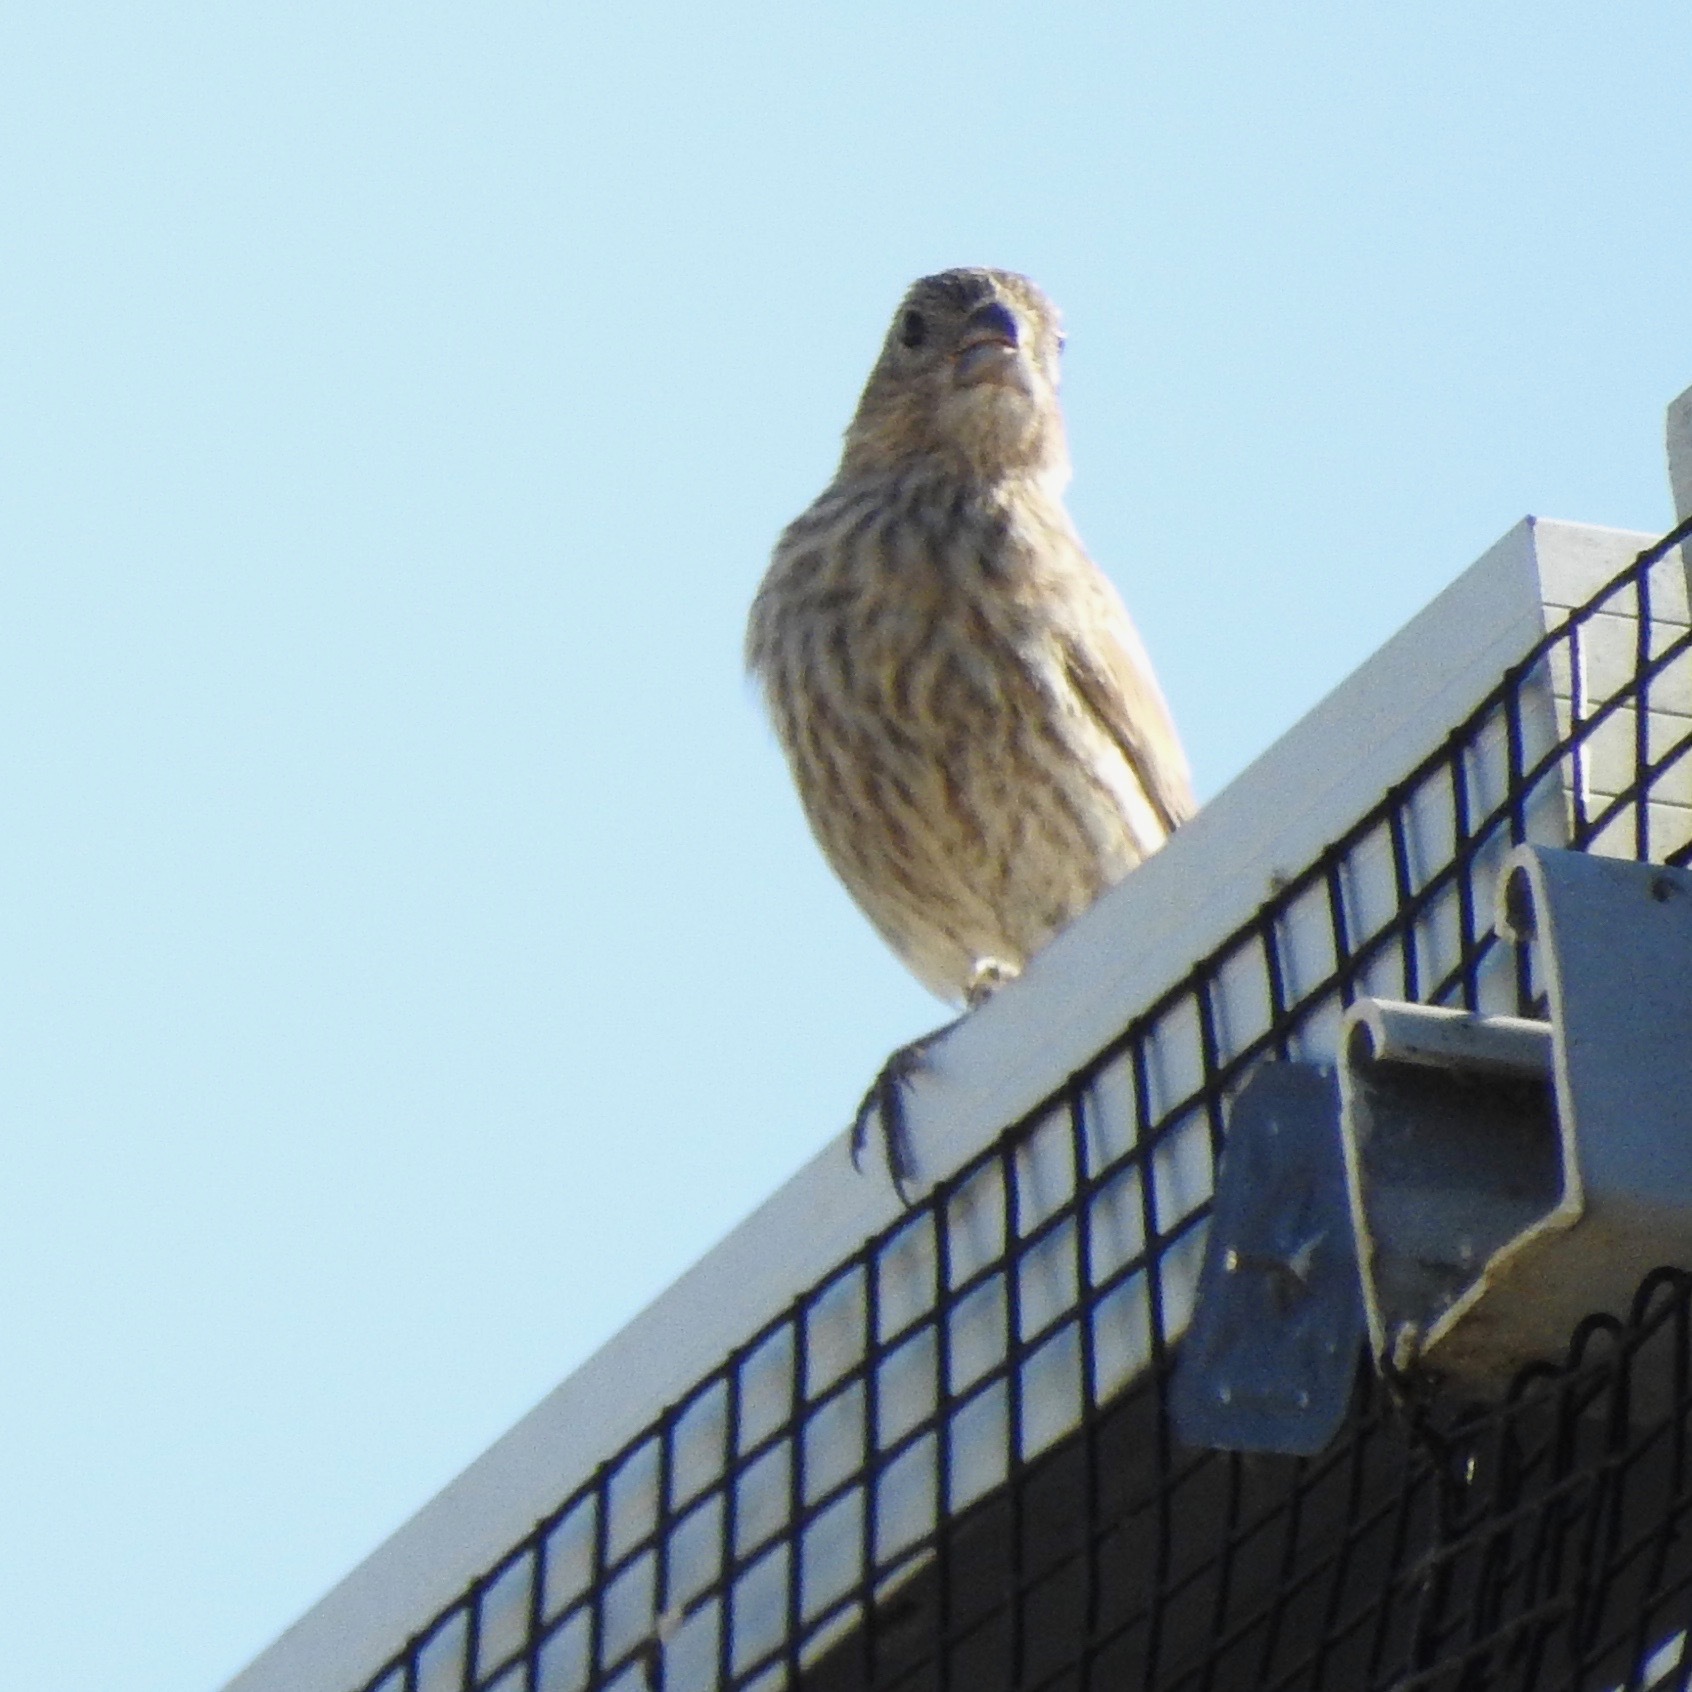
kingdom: Animalia
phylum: Chordata
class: Aves
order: Passeriformes
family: Fringillidae
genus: Haemorhous
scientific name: Haemorhous mexicanus
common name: House finch
